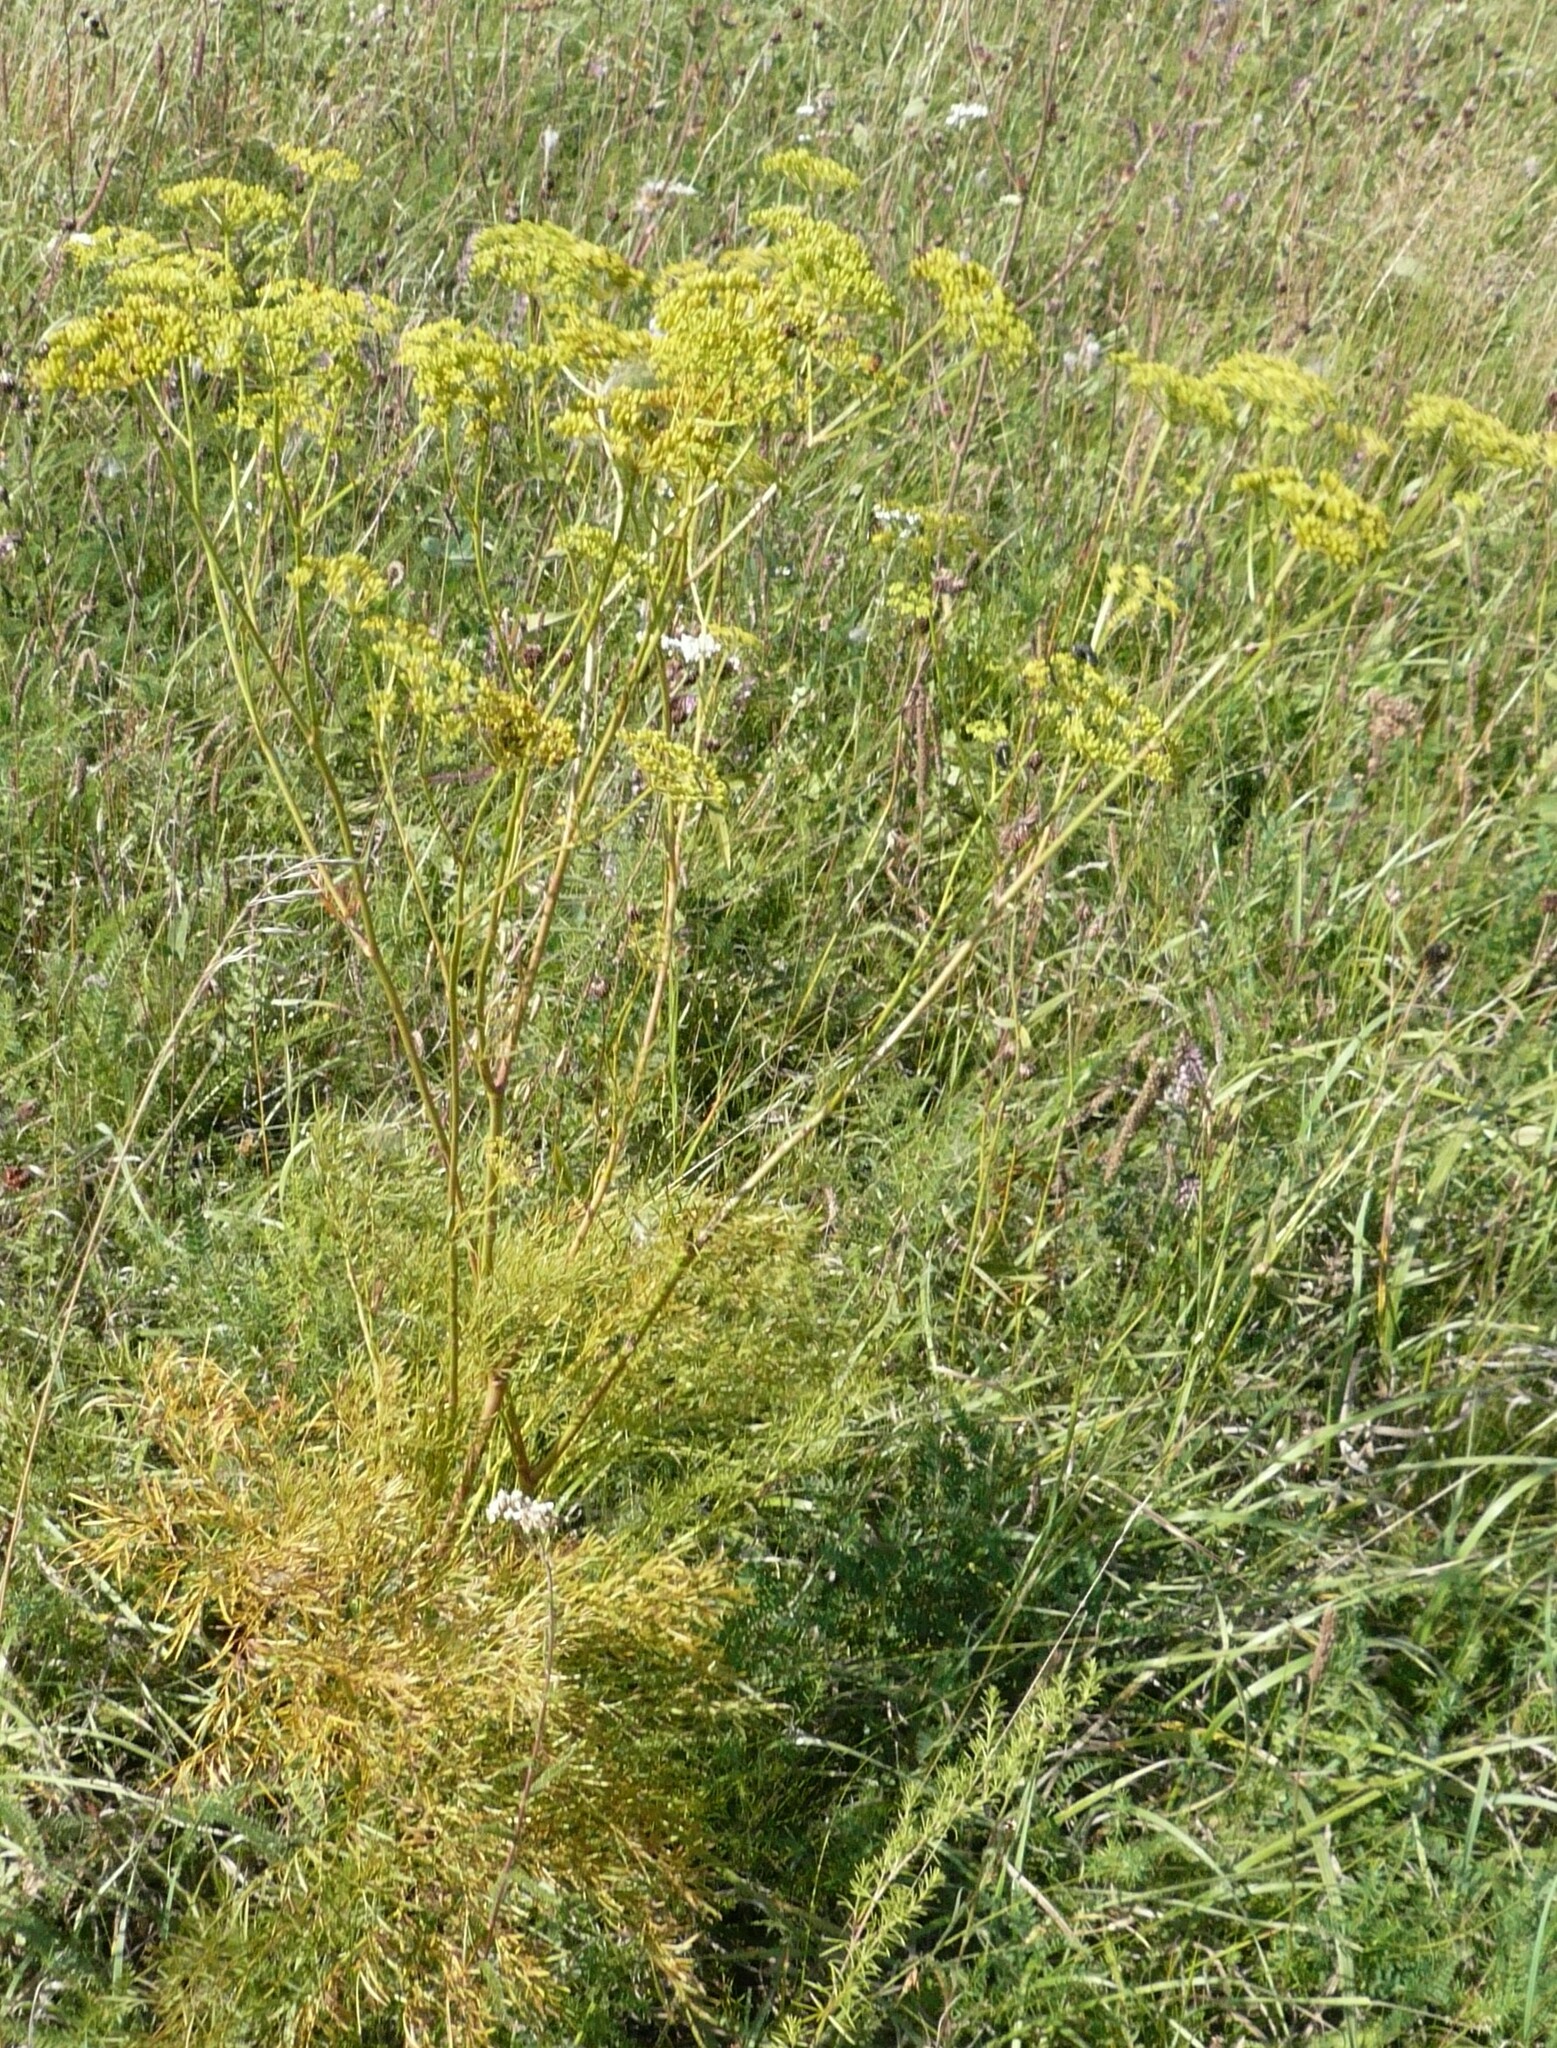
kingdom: Plantae
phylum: Tracheophyta
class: Magnoliopsida
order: Apiales
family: Apiaceae
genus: Silaum
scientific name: Silaum silaus
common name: Pepper-saxifrage
